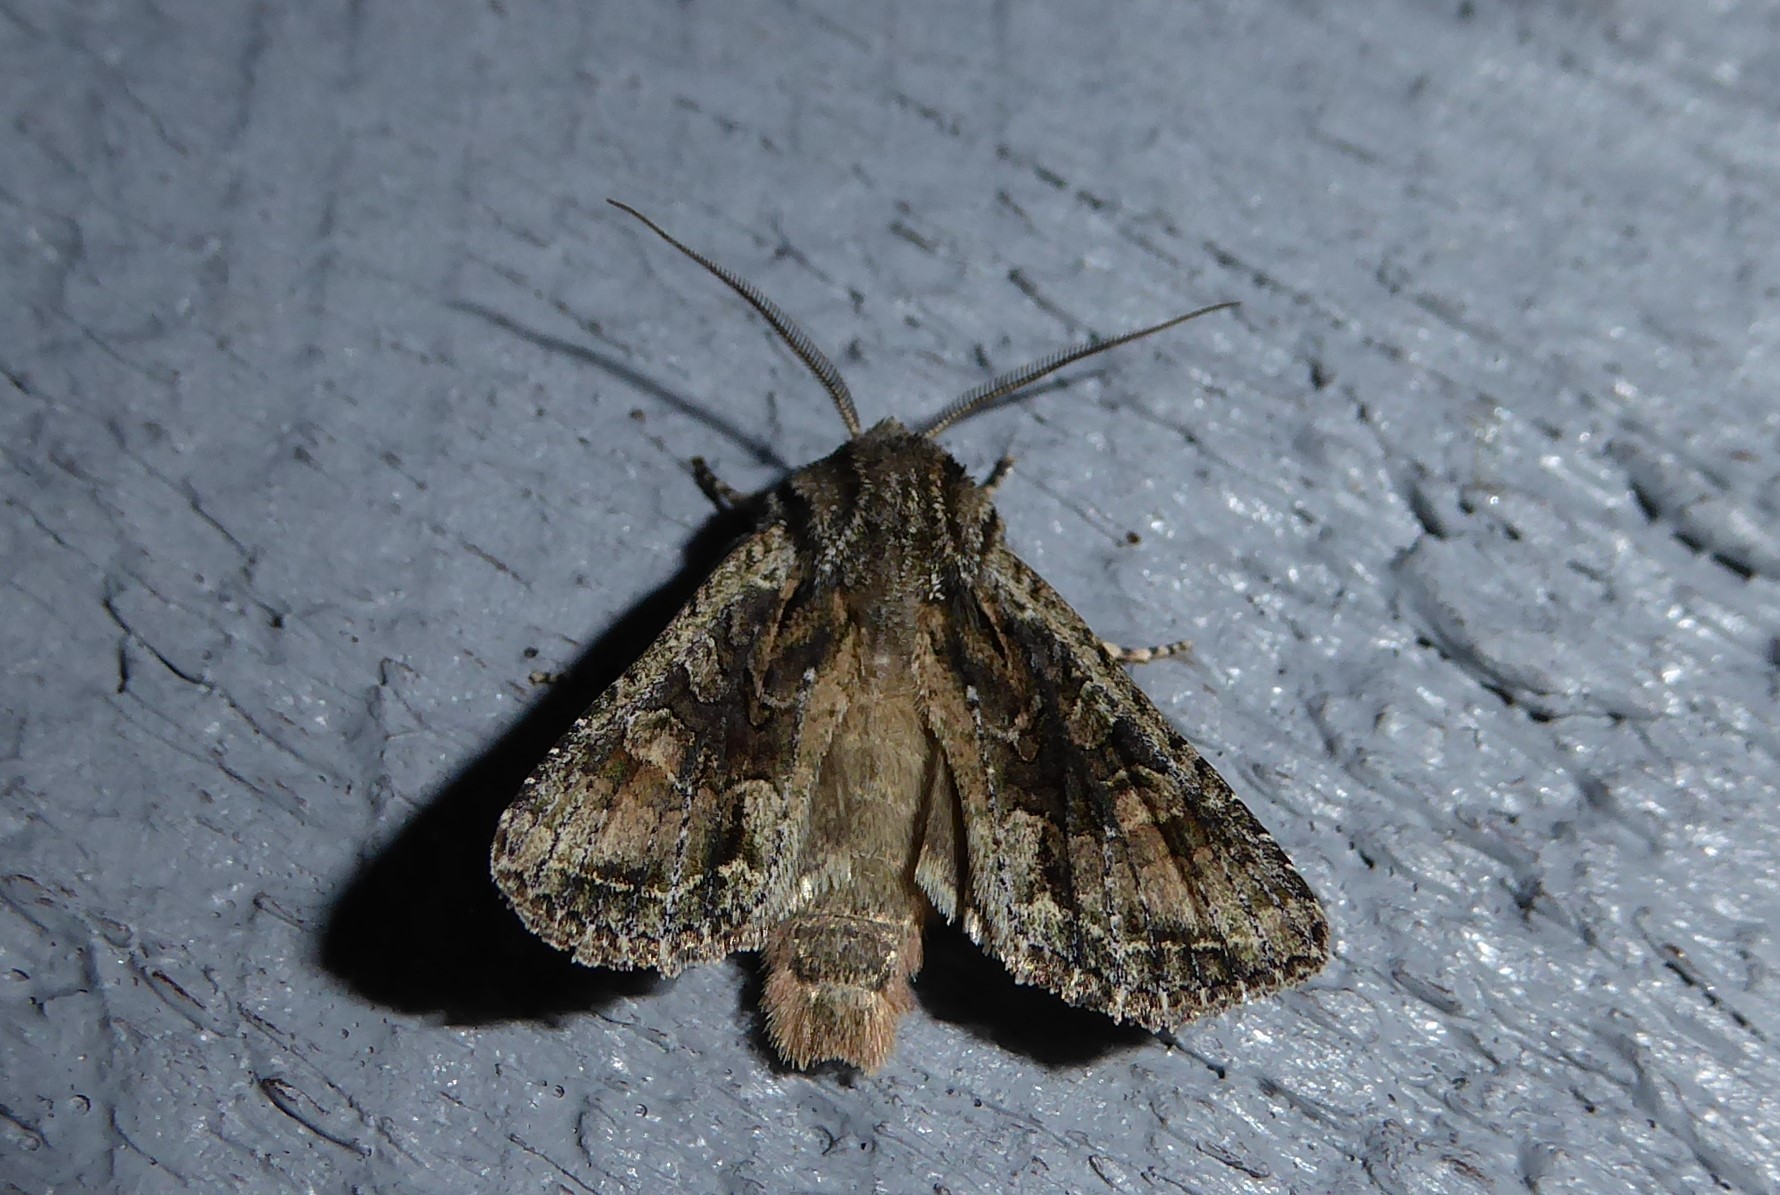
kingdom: Animalia
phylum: Arthropoda
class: Insecta
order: Lepidoptera
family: Noctuidae
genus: Ichneutica
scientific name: Ichneutica mutans
